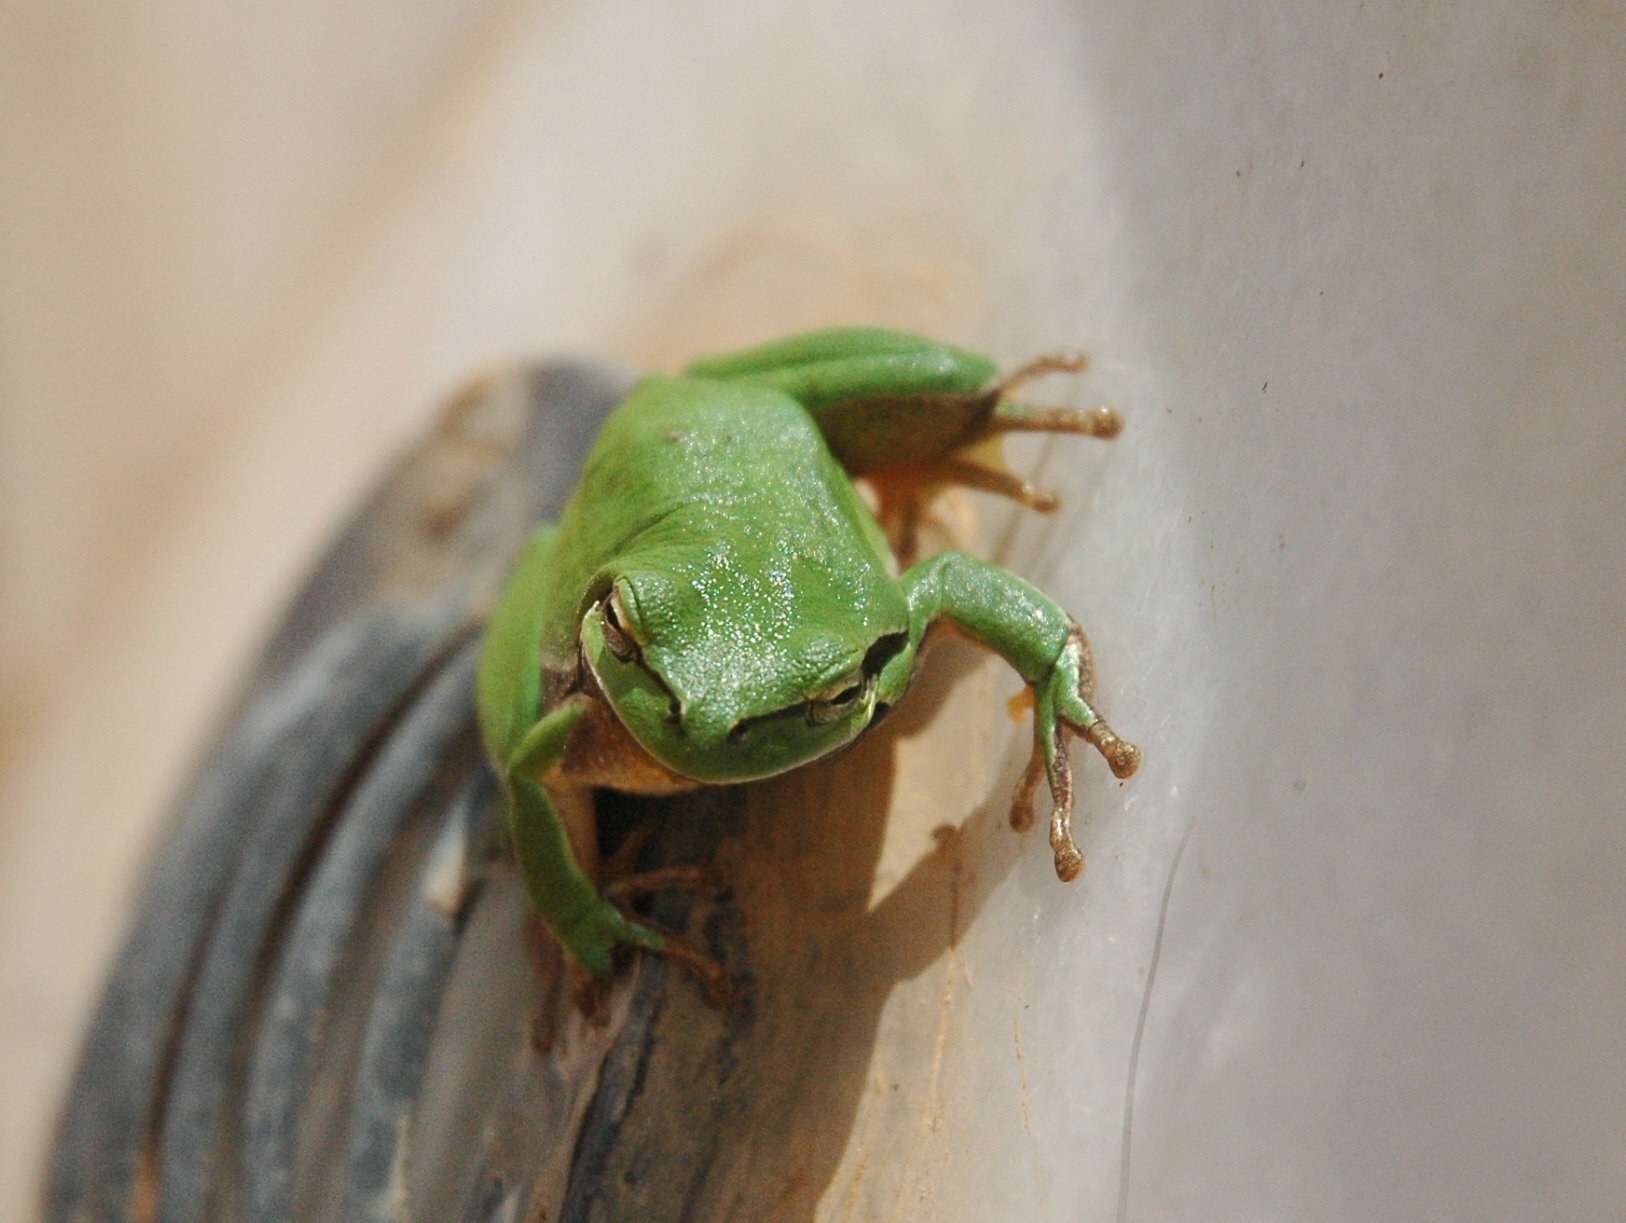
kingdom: Animalia
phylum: Chordata
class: Amphibia
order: Anura
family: Hylidae
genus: Hyla
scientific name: Hyla savignyi
